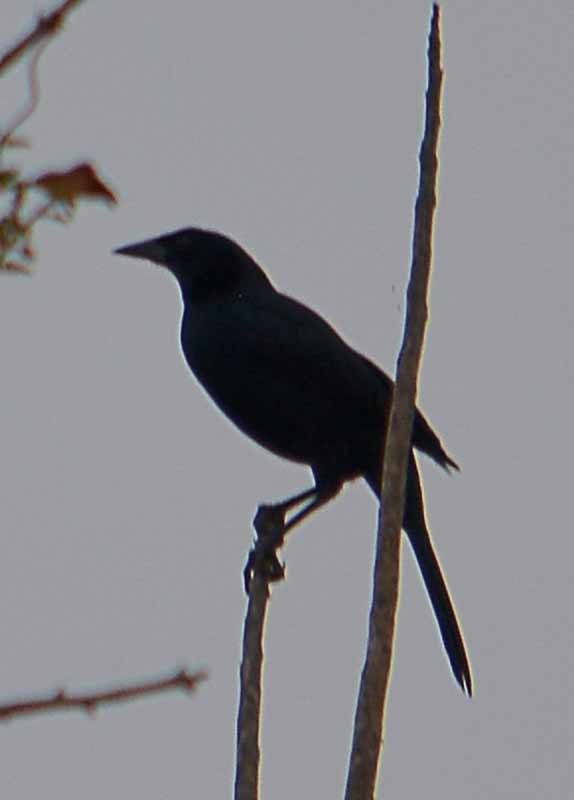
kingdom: Animalia
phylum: Chordata
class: Aves
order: Passeriformes
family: Icteridae
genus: Dives
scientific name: Dives dives
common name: Melodious blackbird
